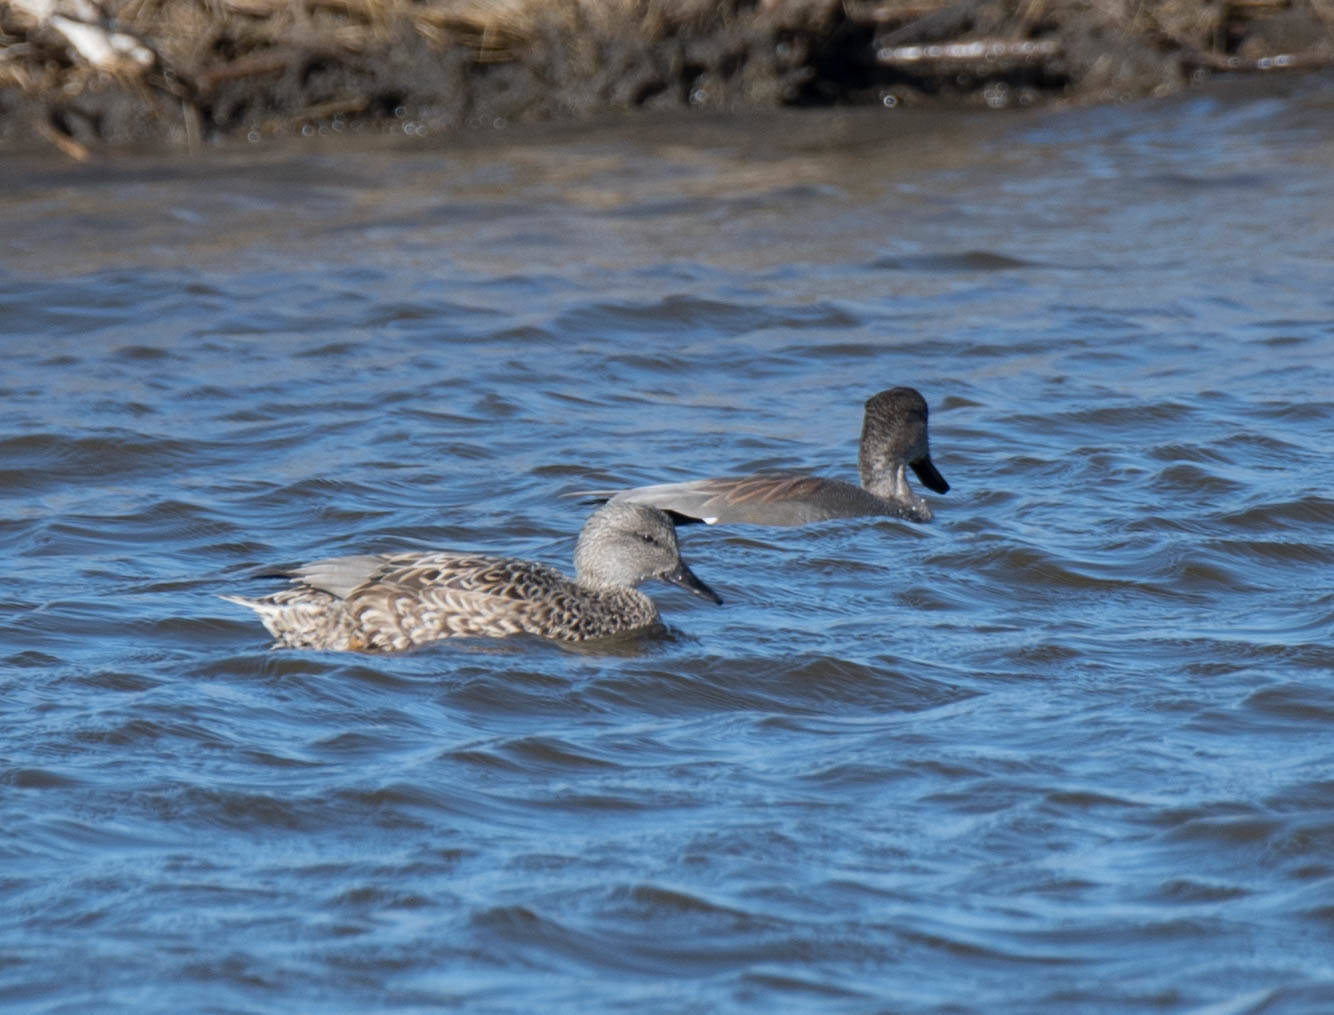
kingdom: Animalia
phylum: Chordata
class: Aves
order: Anseriformes
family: Anatidae
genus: Mareca
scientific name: Mareca strepera
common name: Gadwall
